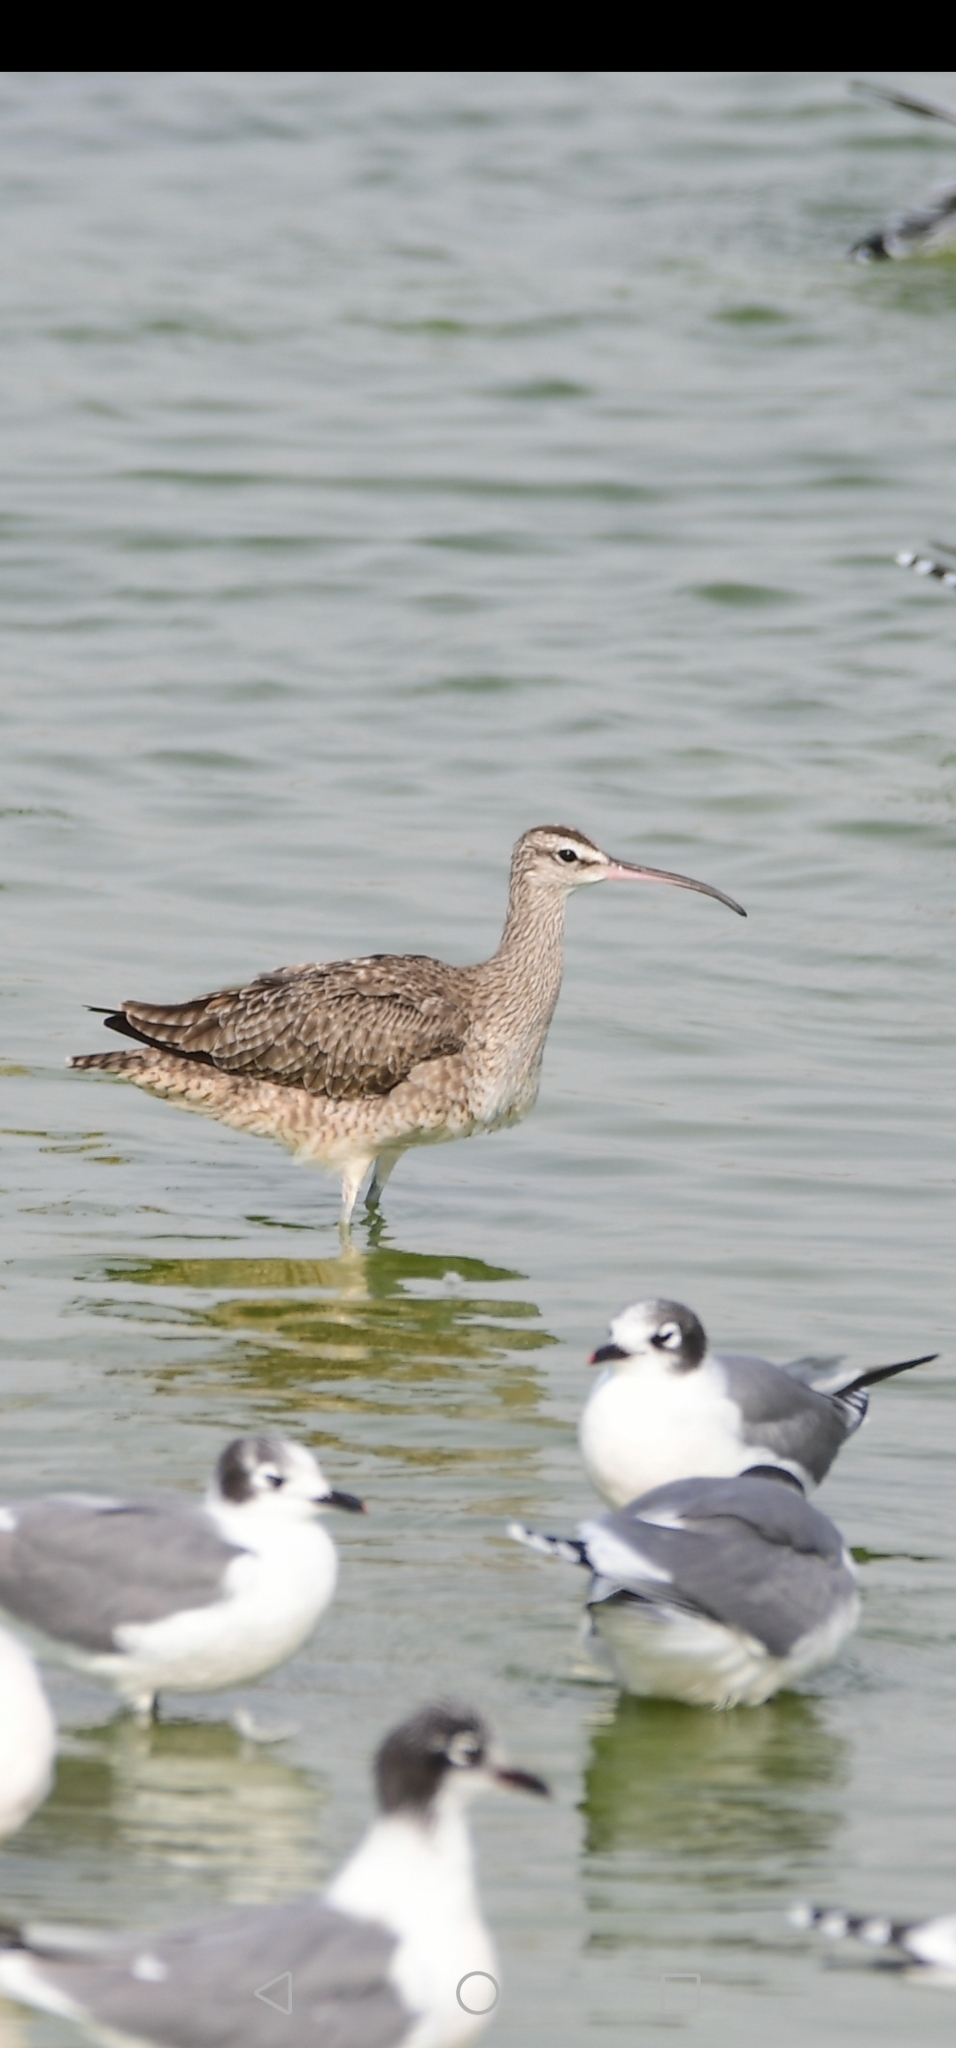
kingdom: Animalia
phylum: Chordata
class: Aves
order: Charadriiformes
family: Scolopacidae
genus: Numenius
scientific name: Numenius phaeopus
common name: Whimbrel
